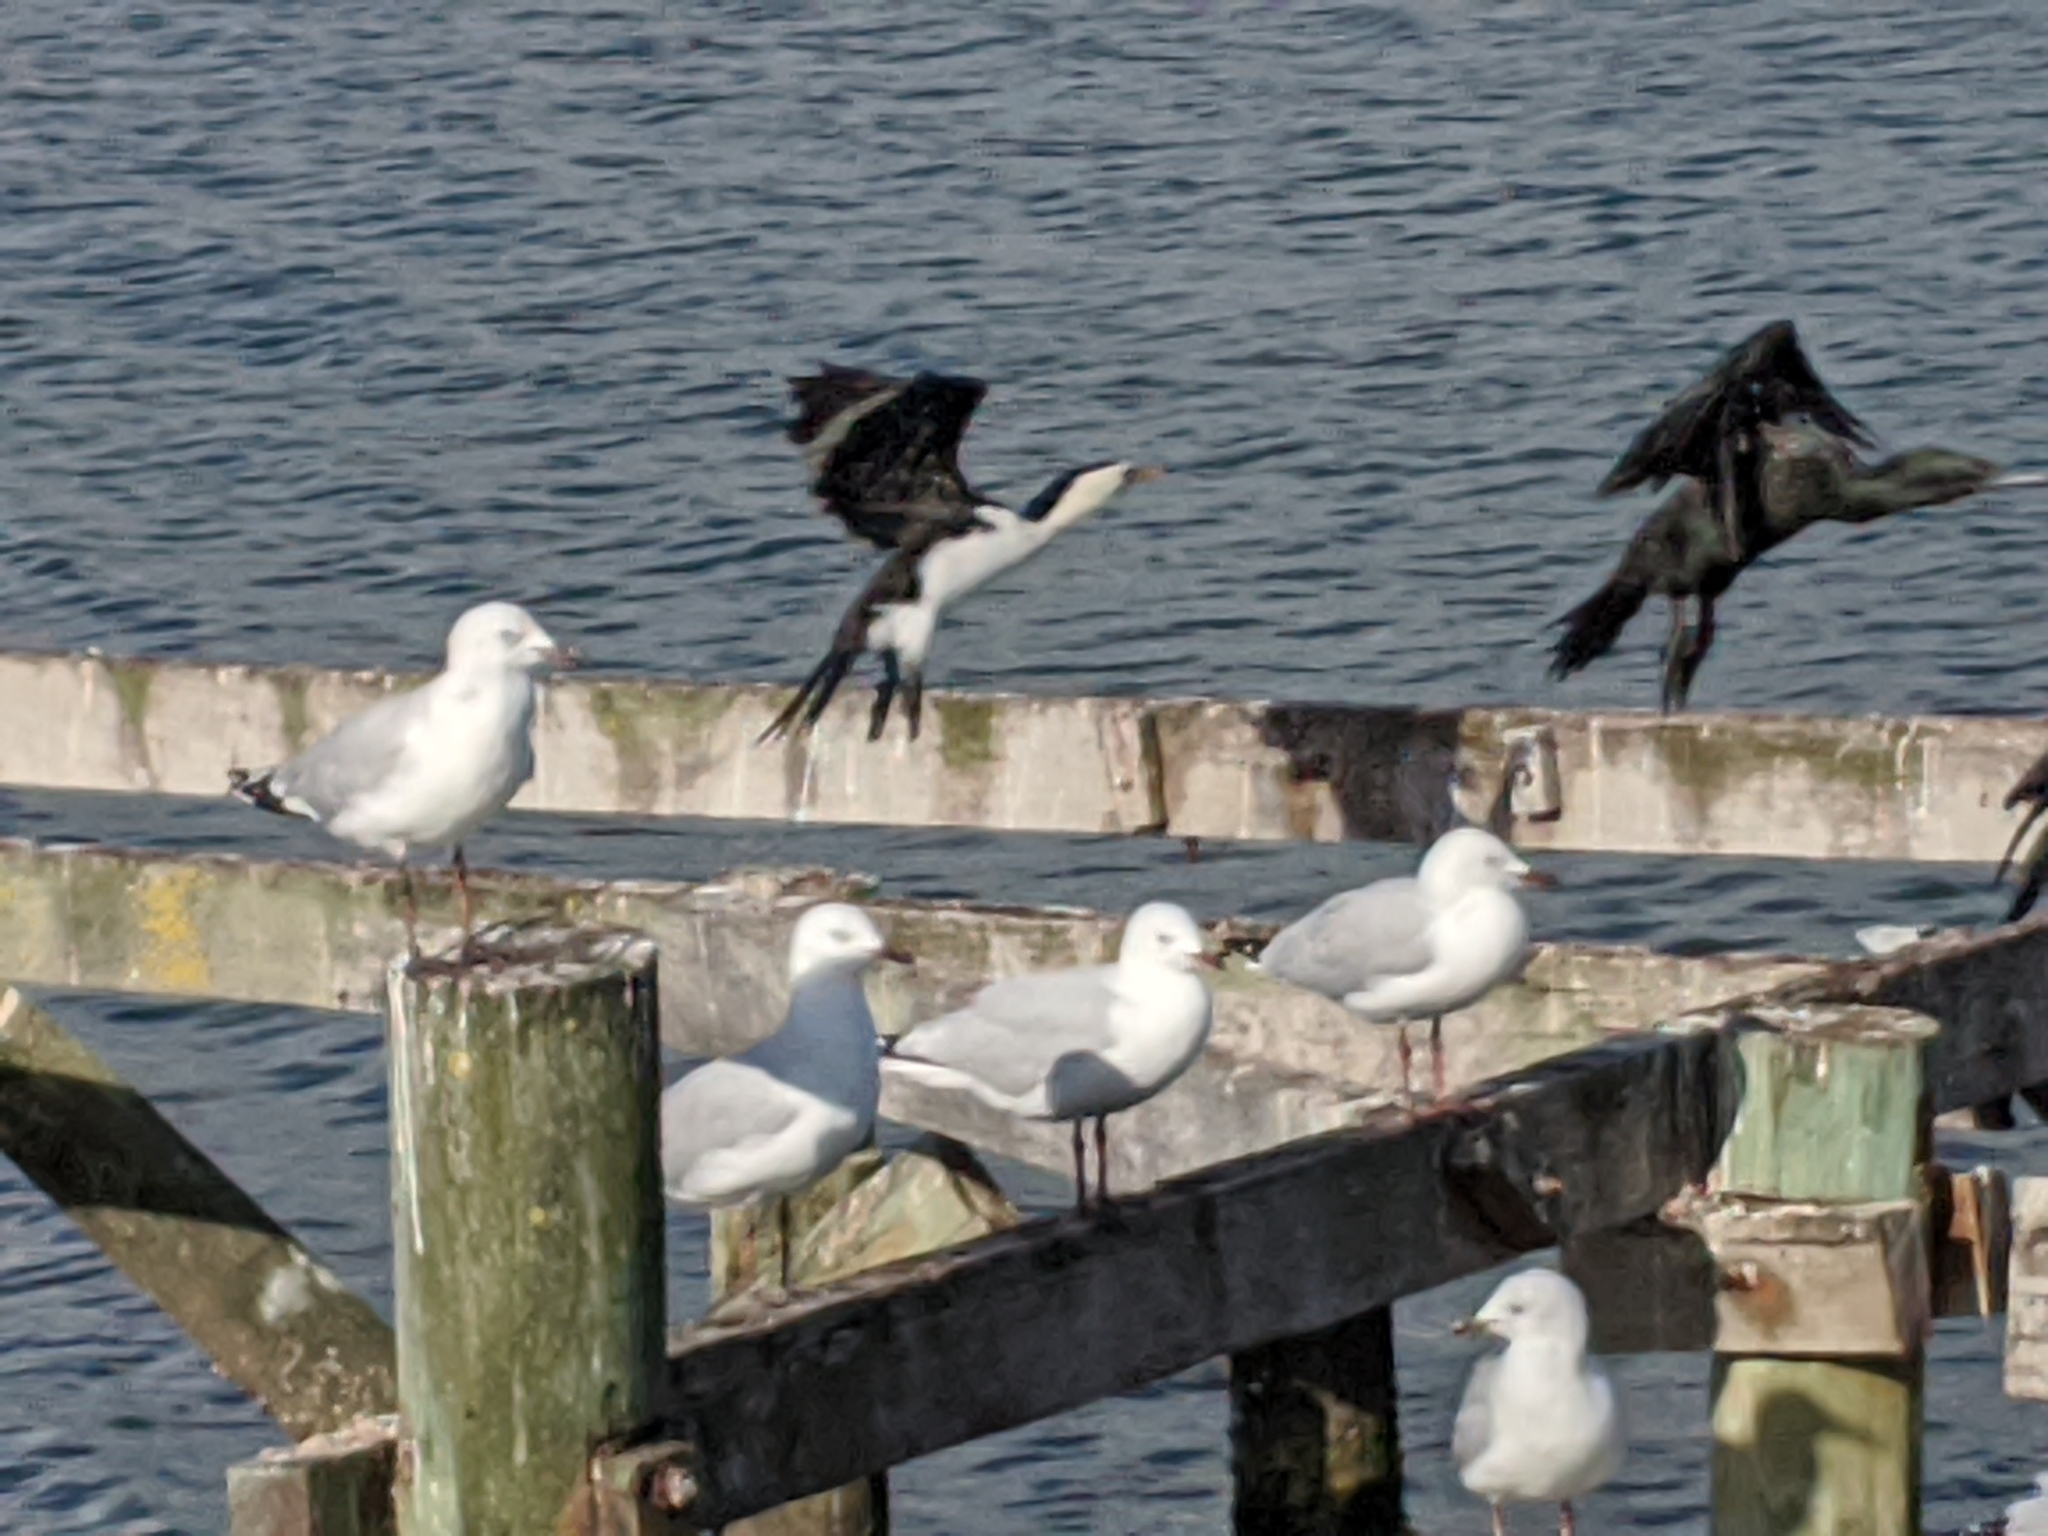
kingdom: Animalia
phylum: Chordata
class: Aves
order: Suliformes
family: Phalacrocoracidae
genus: Microcarbo
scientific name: Microcarbo melanoleucos
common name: Little pied cormorant
